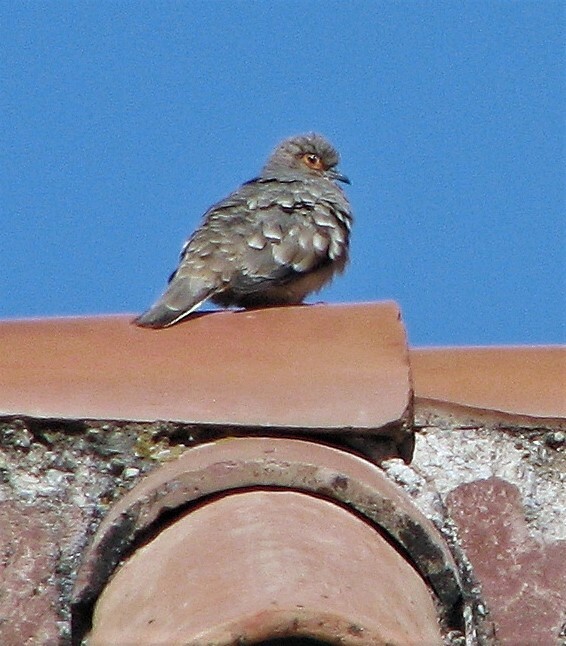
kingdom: Animalia
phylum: Chordata
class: Aves
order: Columbiformes
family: Columbidae
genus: Metriopelia
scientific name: Metriopelia ceciliae
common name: Bare-faced ground dove
